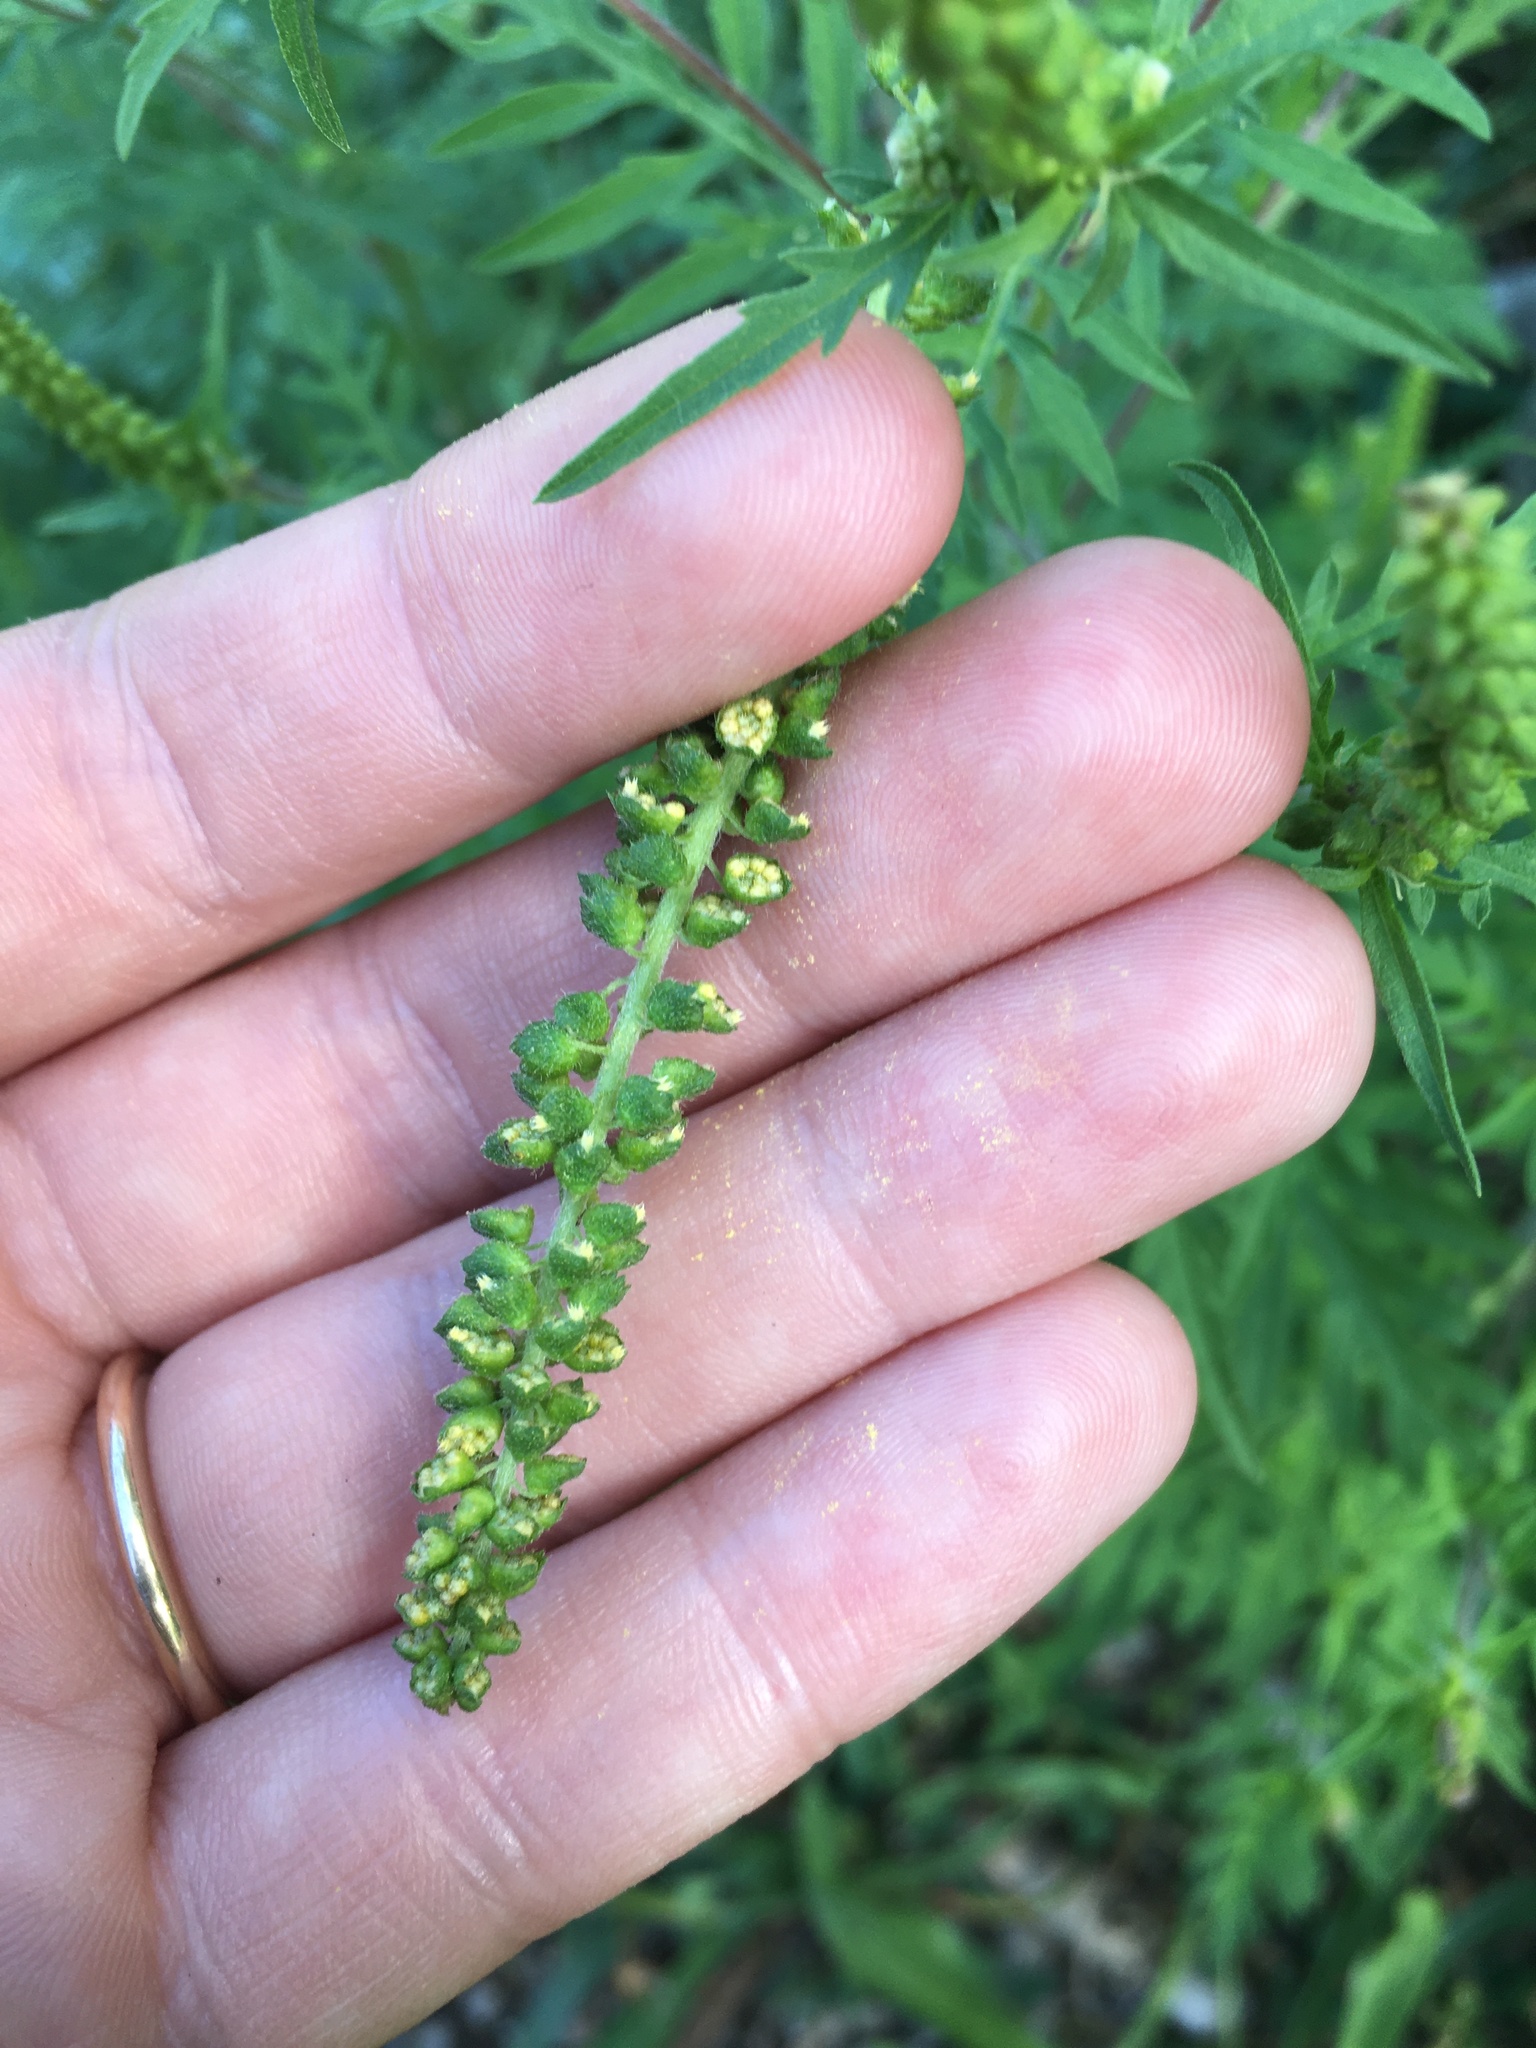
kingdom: Plantae
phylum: Tracheophyta
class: Magnoliopsida
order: Asterales
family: Asteraceae
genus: Ambrosia
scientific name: Ambrosia artemisiifolia
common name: Annual ragweed
